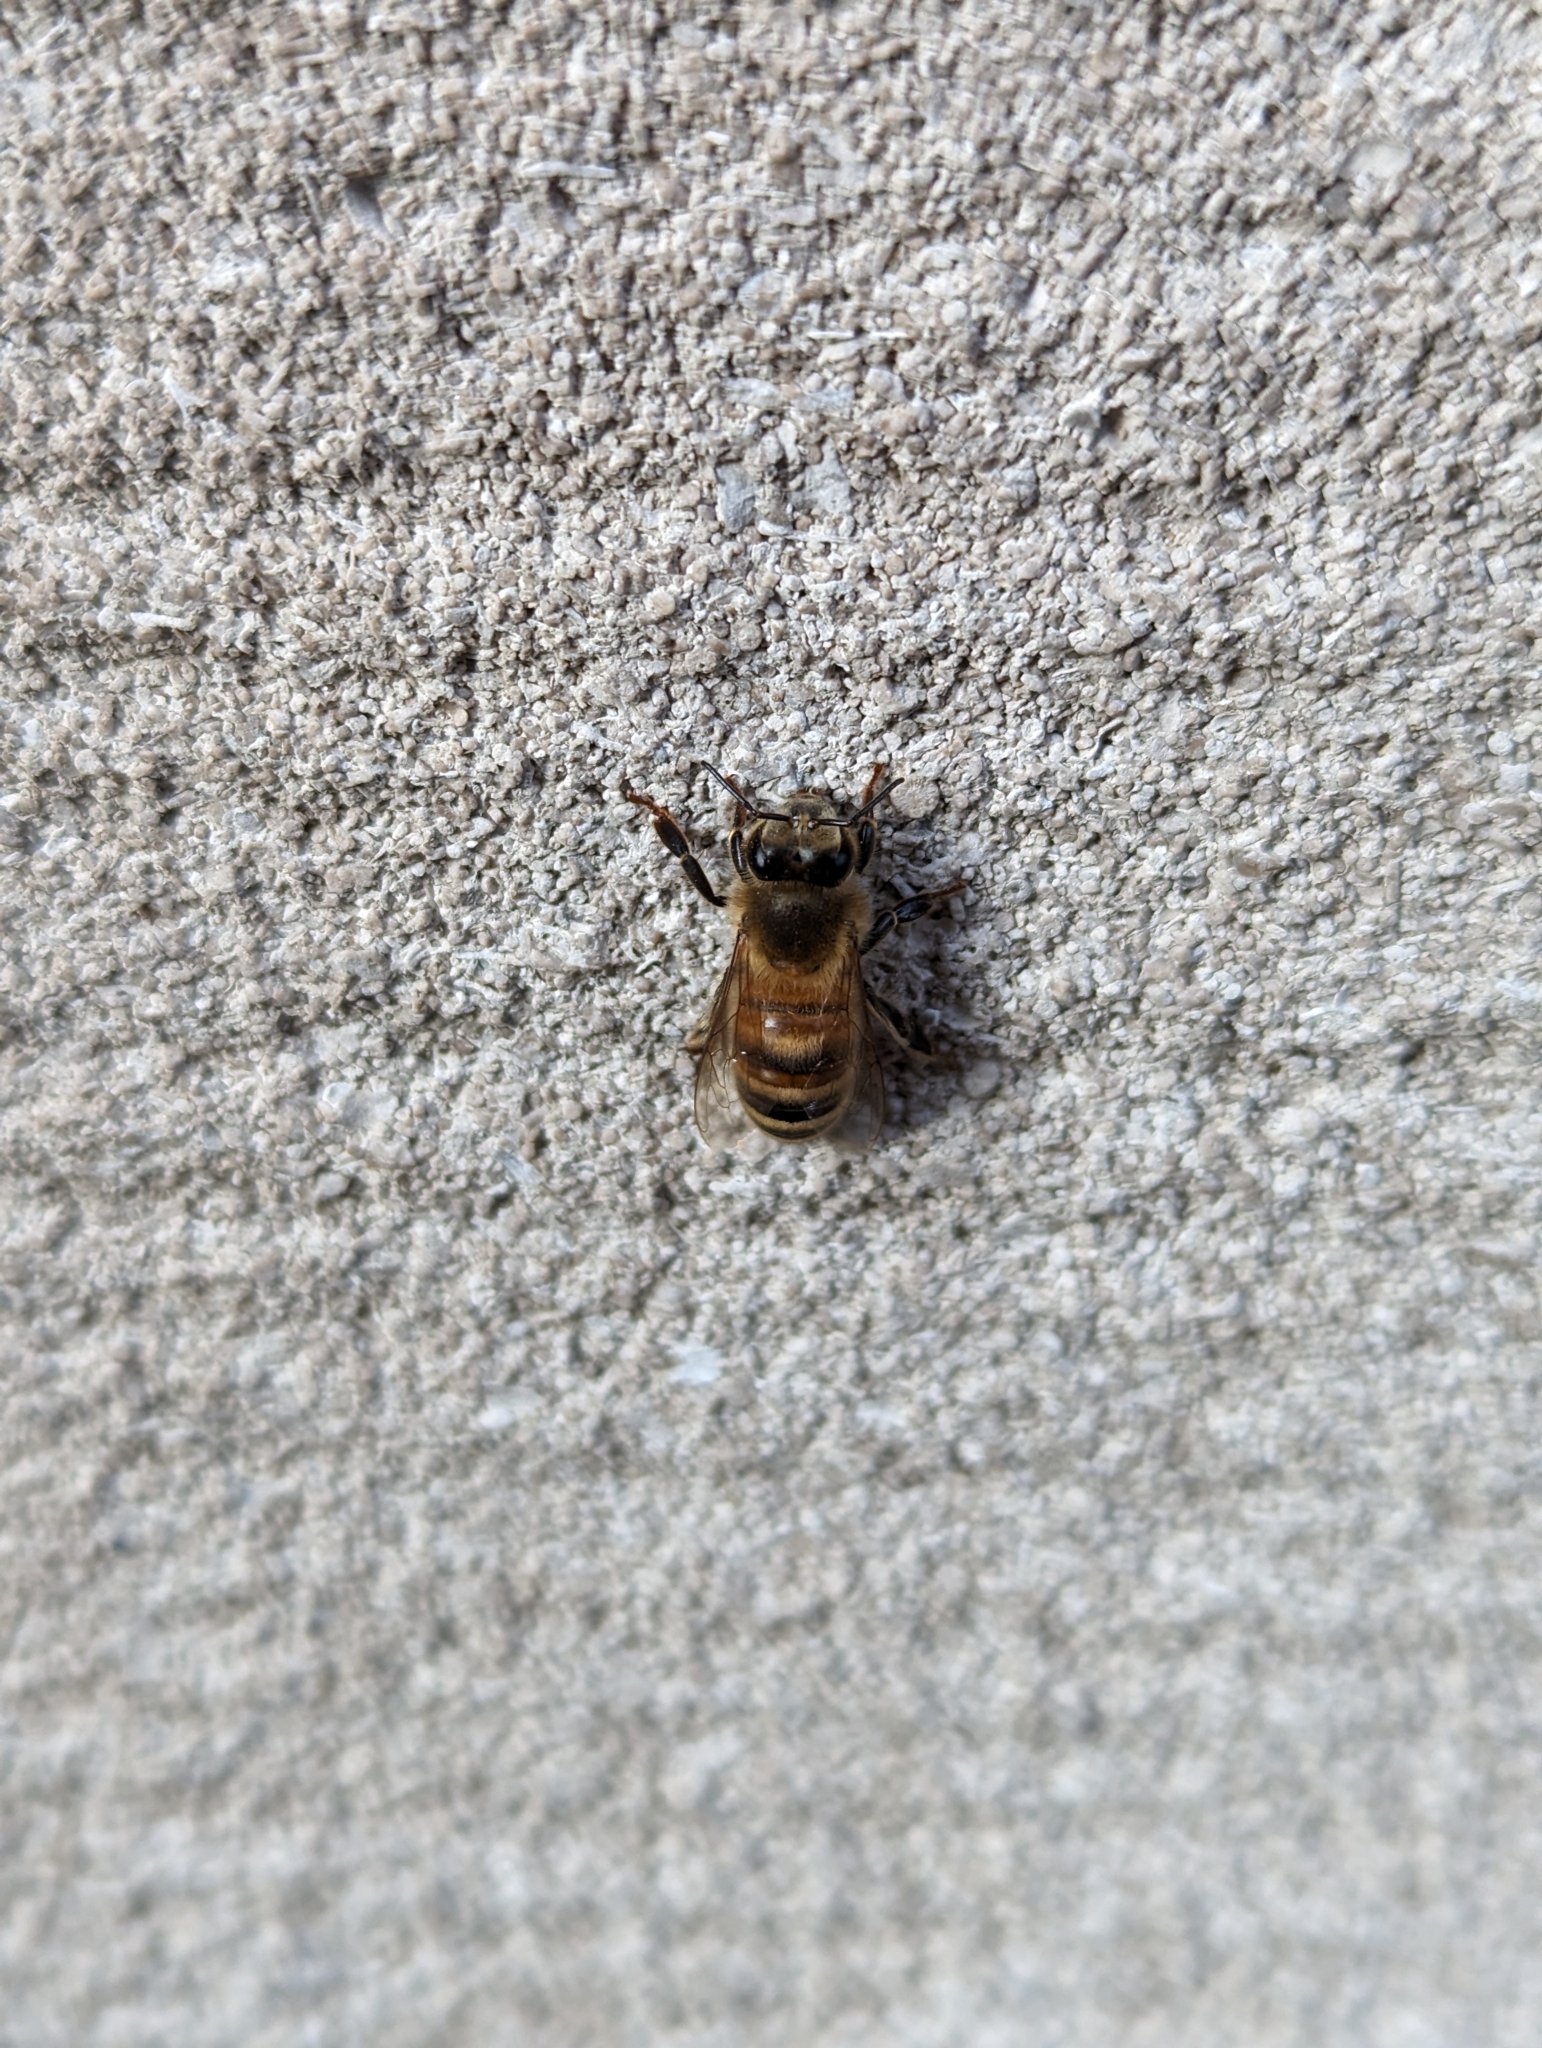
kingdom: Animalia
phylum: Arthropoda
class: Insecta
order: Hymenoptera
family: Apidae
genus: Apis
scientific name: Apis mellifera
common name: Honey bee
